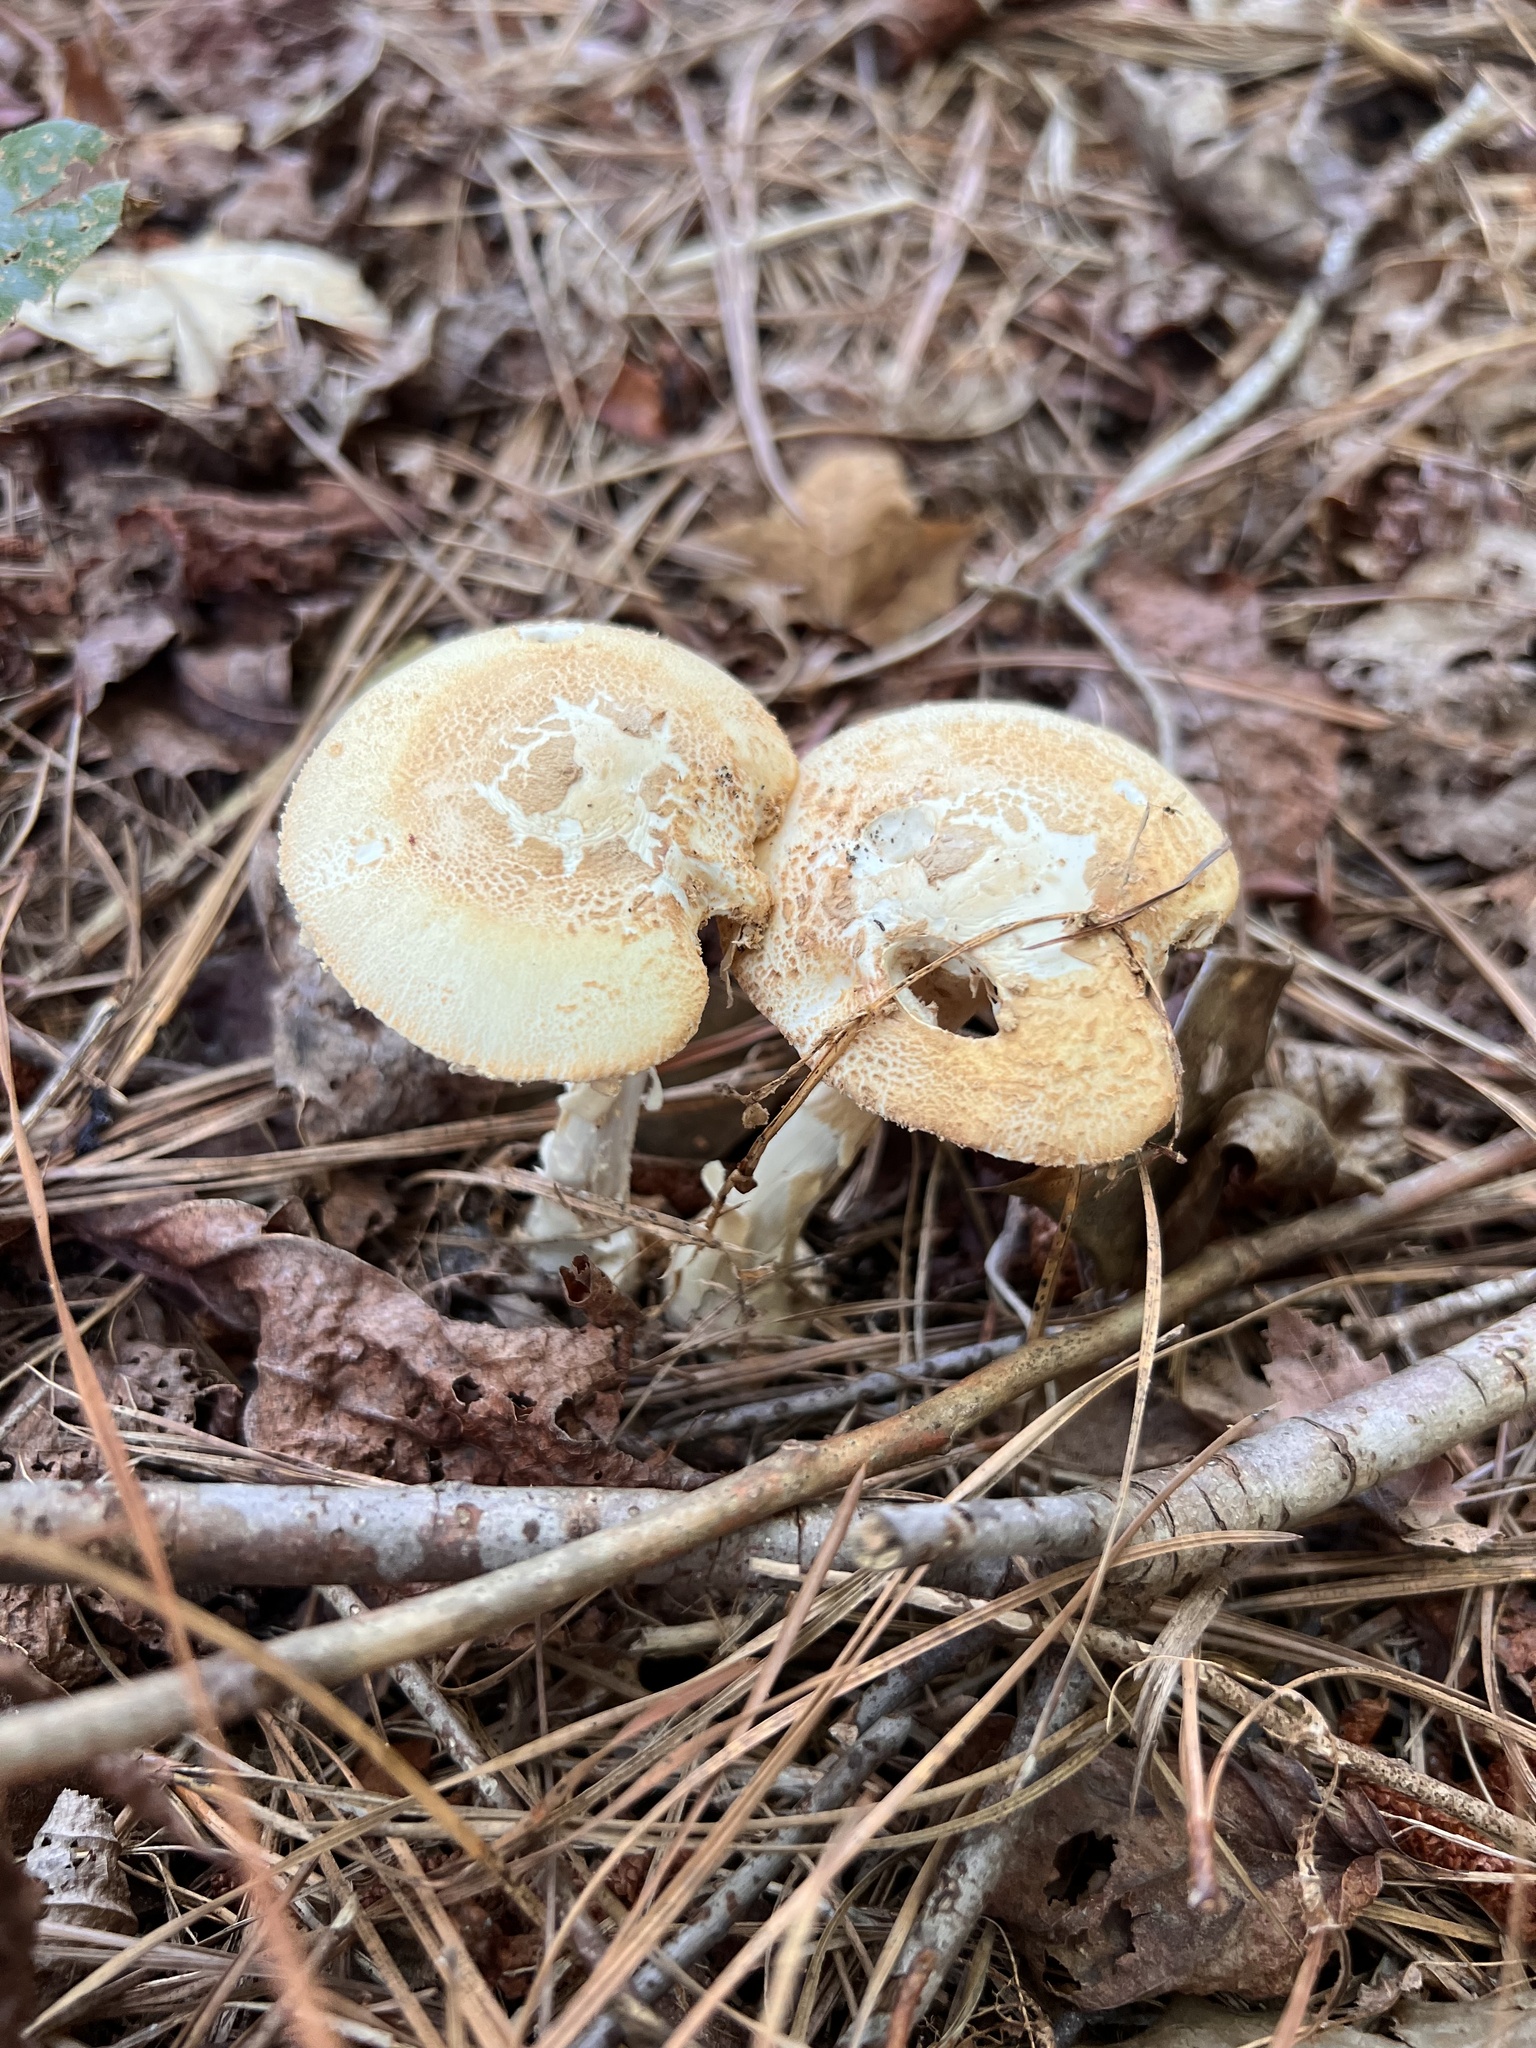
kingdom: Fungi
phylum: Basidiomycota
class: Agaricomycetes
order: Agaricales
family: Amanitaceae
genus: Amanita
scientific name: Amanita roseotincta
